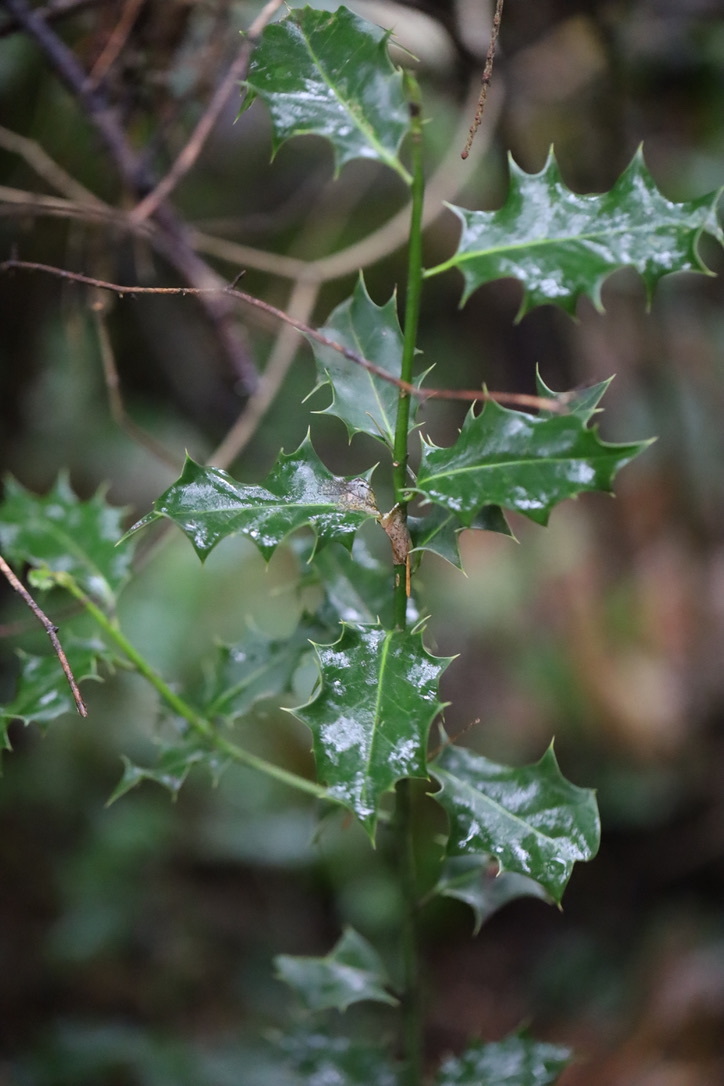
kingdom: Plantae
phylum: Tracheophyta
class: Magnoliopsida
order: Aquifoliales
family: Aquifoliaceae
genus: Ilex
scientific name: Ilex aquifolium
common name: English holly
